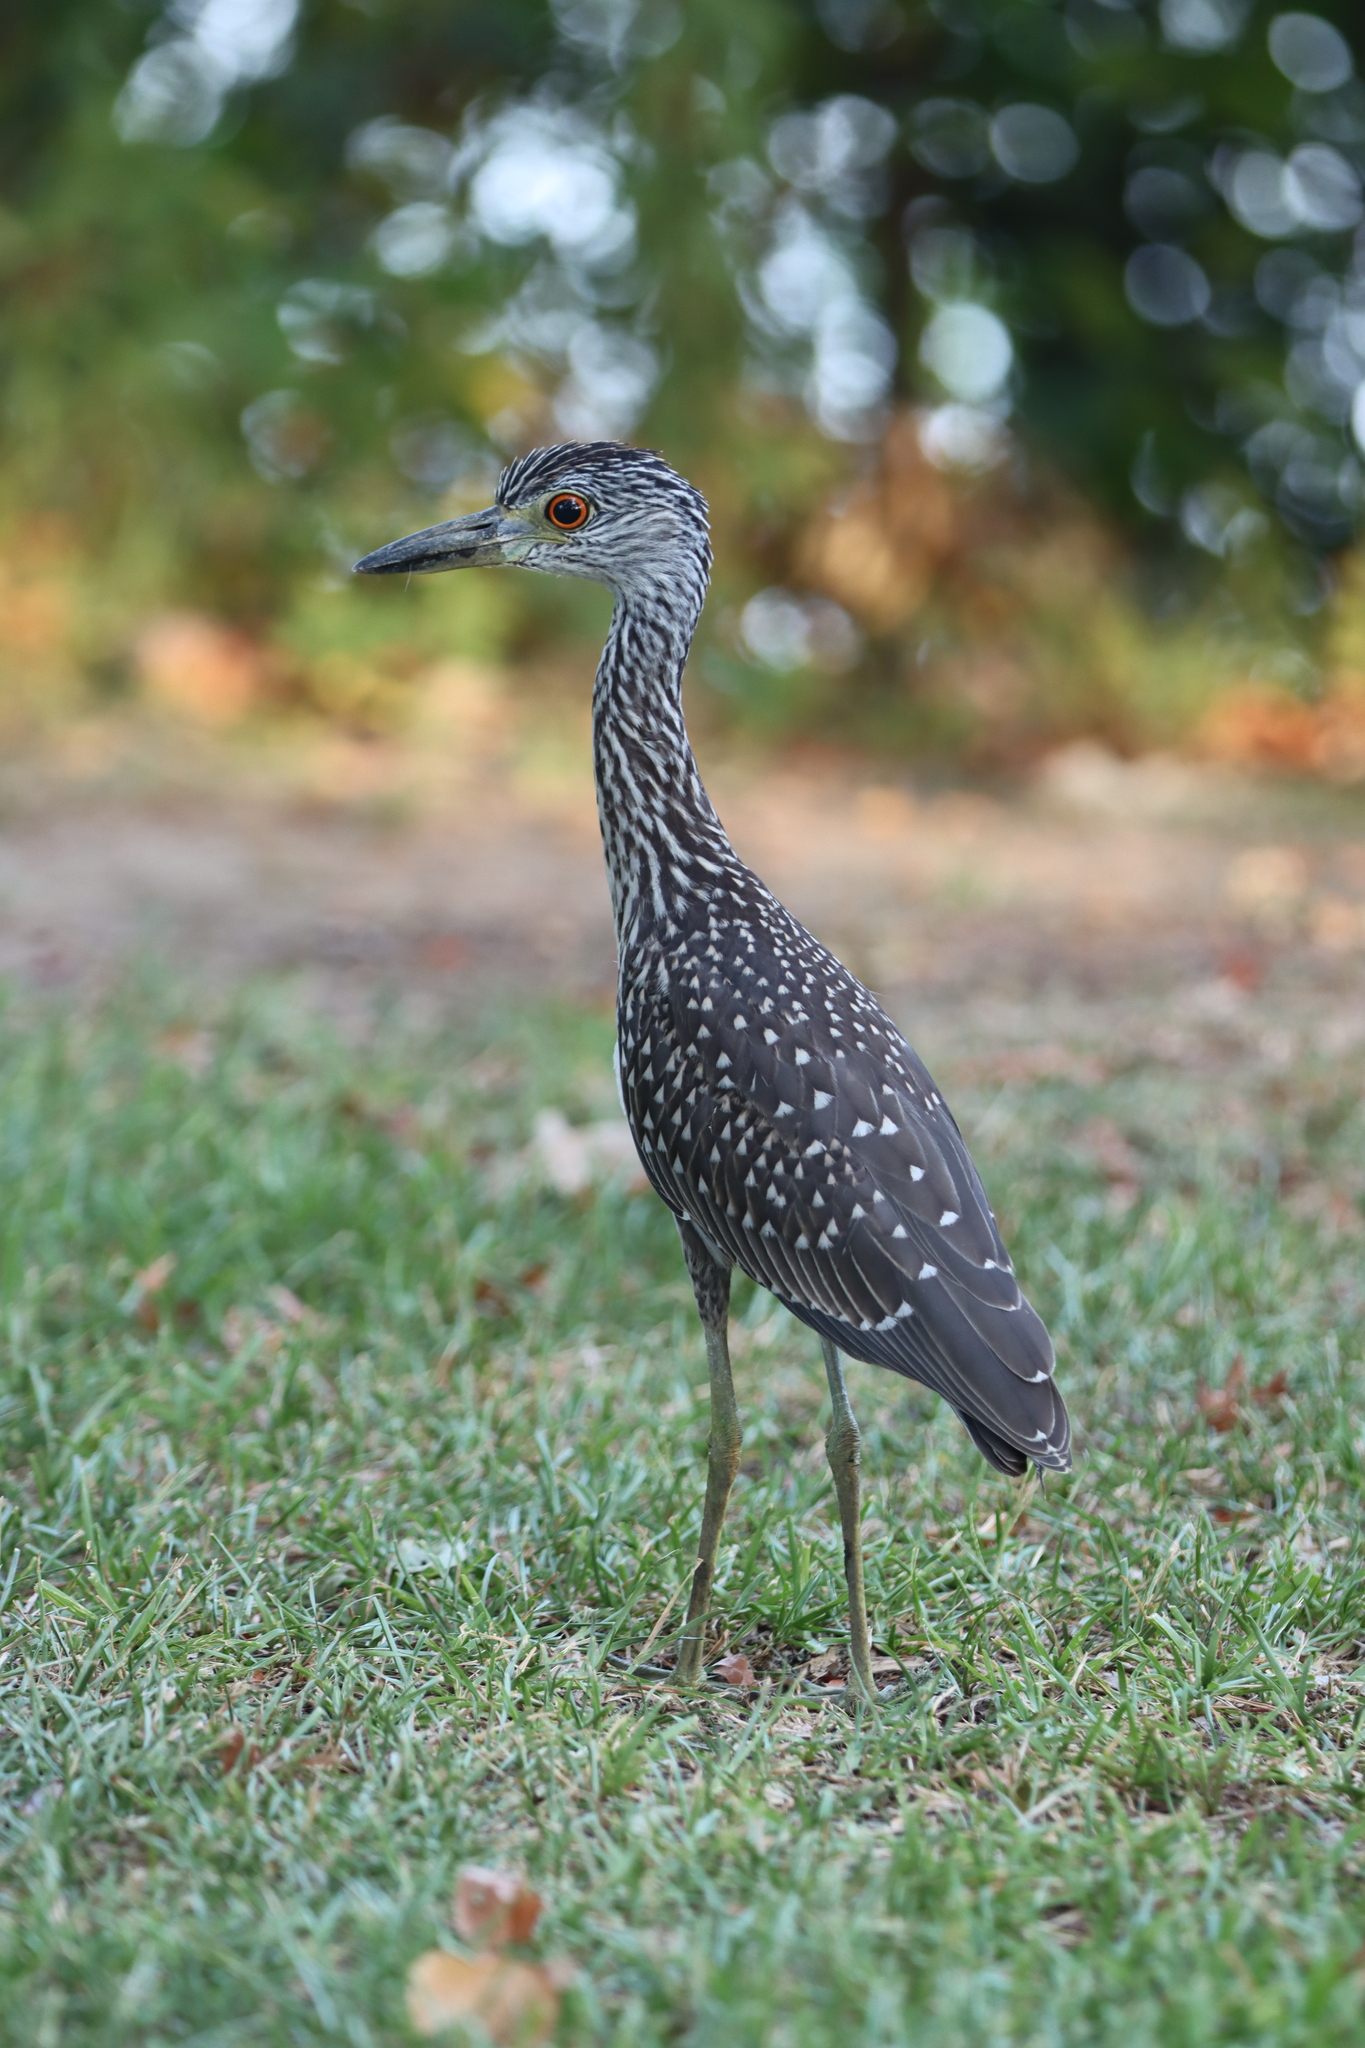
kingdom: Animalia
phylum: Chordata
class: Aves
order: Pelecaniformes
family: Ardeidae
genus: Nyctanassa
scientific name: Nyctanassa violacea
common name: Yellow-crowned night heron
